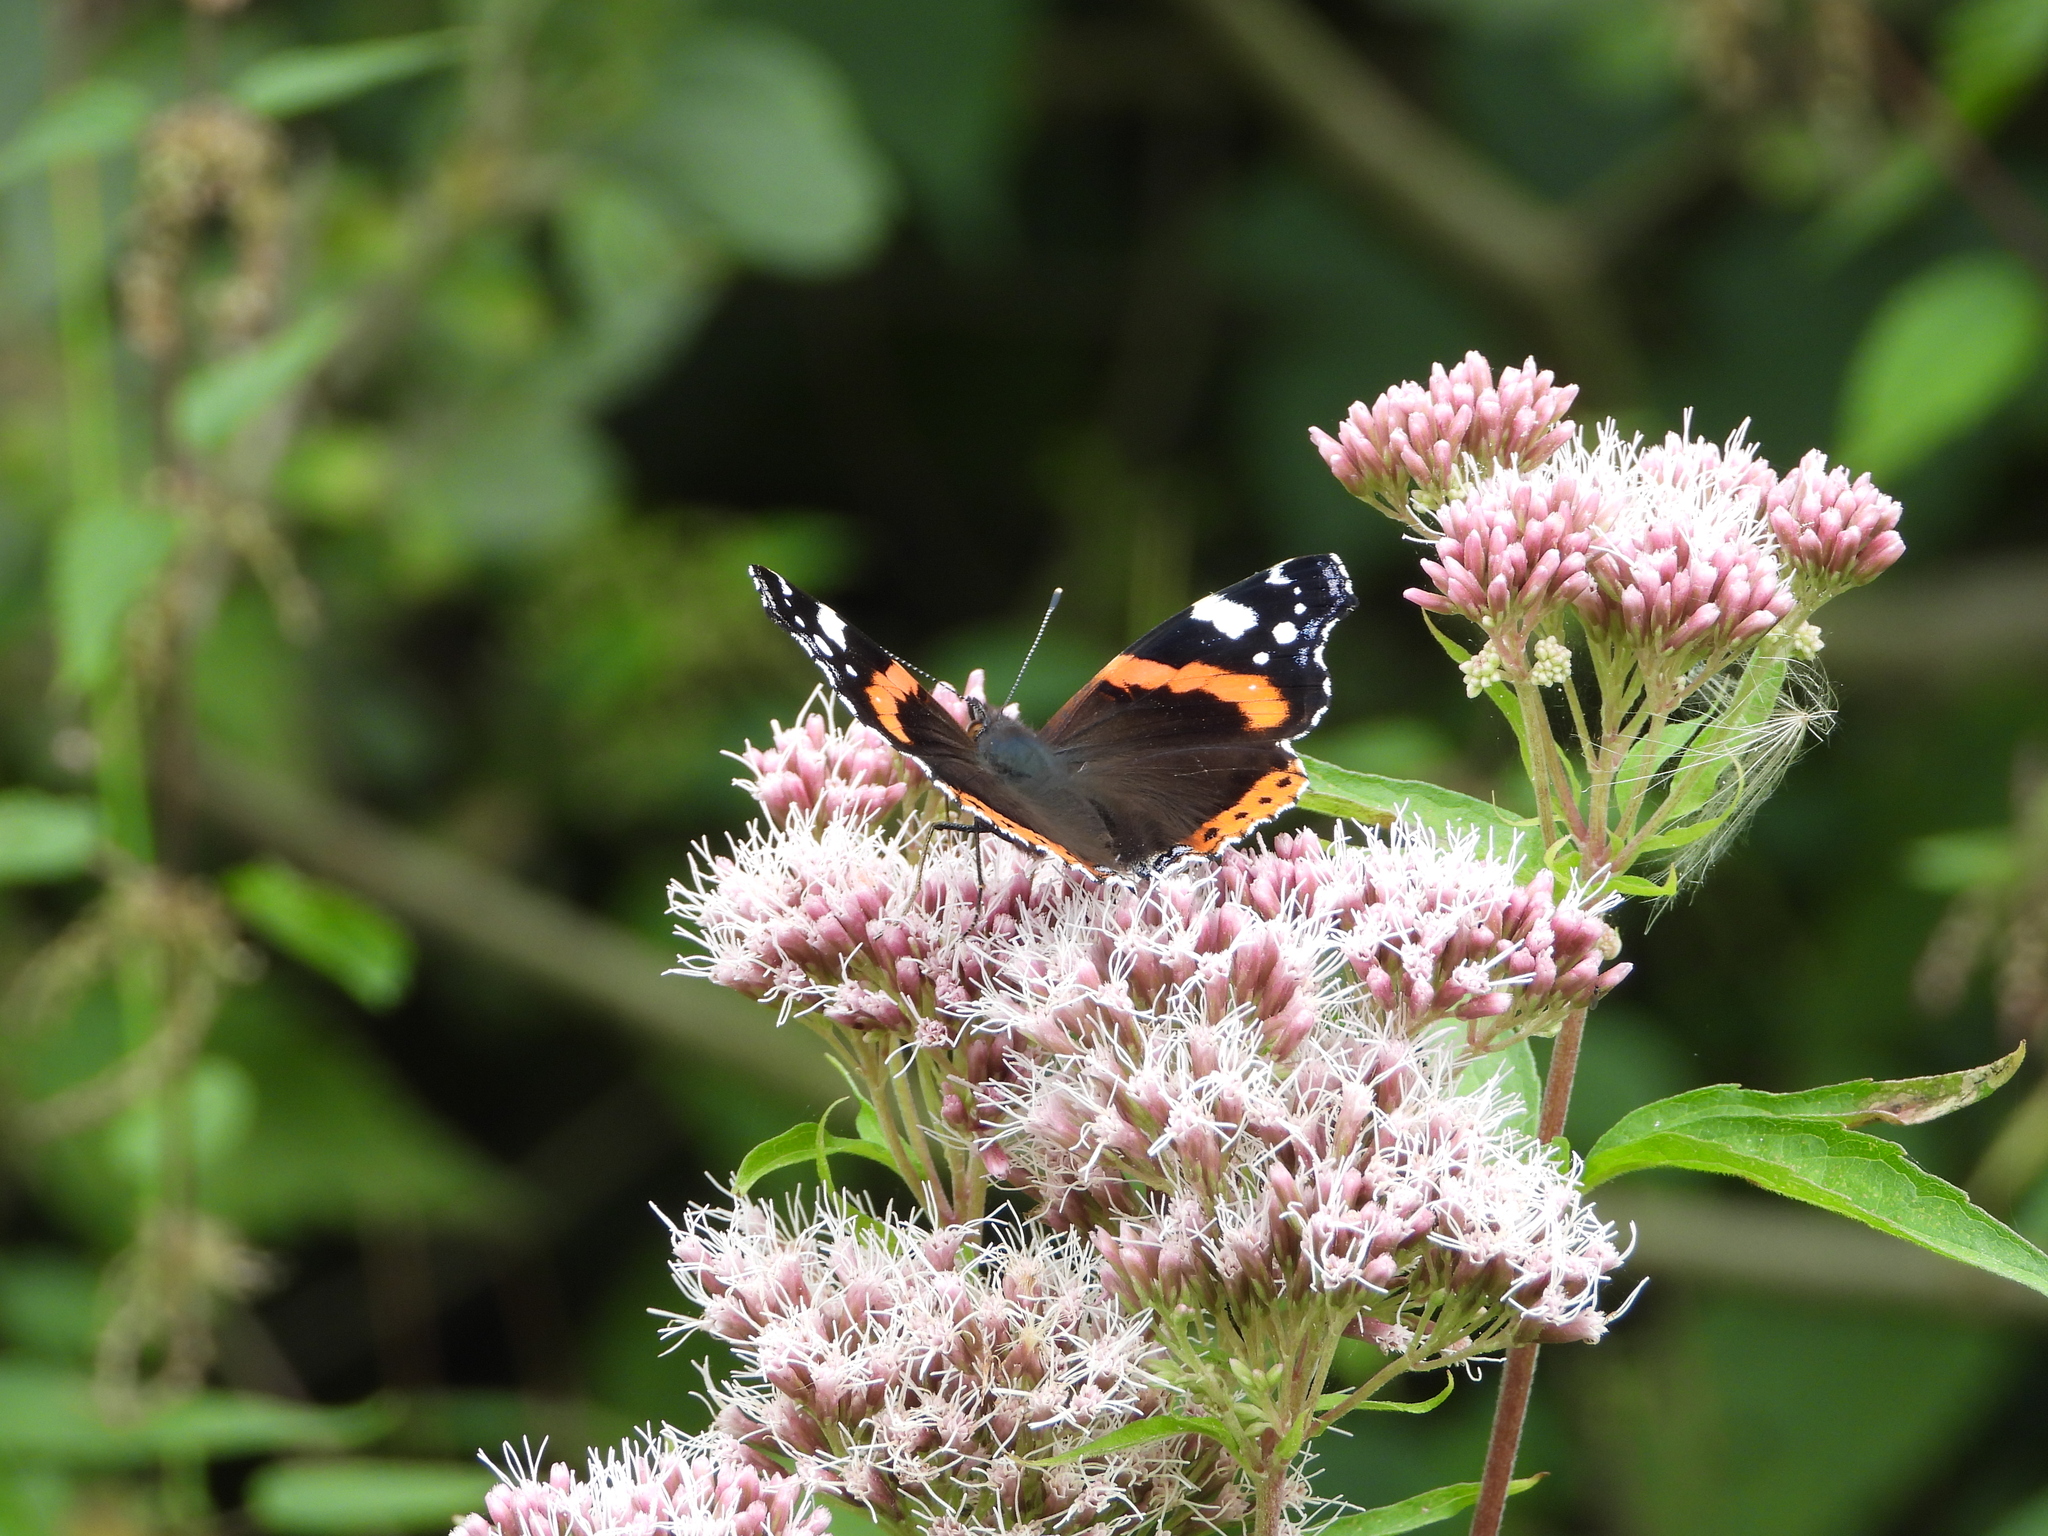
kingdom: Animalia
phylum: Arthropoda
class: Insecta
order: Lepidoptera
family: Nymphalidae
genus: Vanessa
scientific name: Vanessa atalanta
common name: Red admiral
